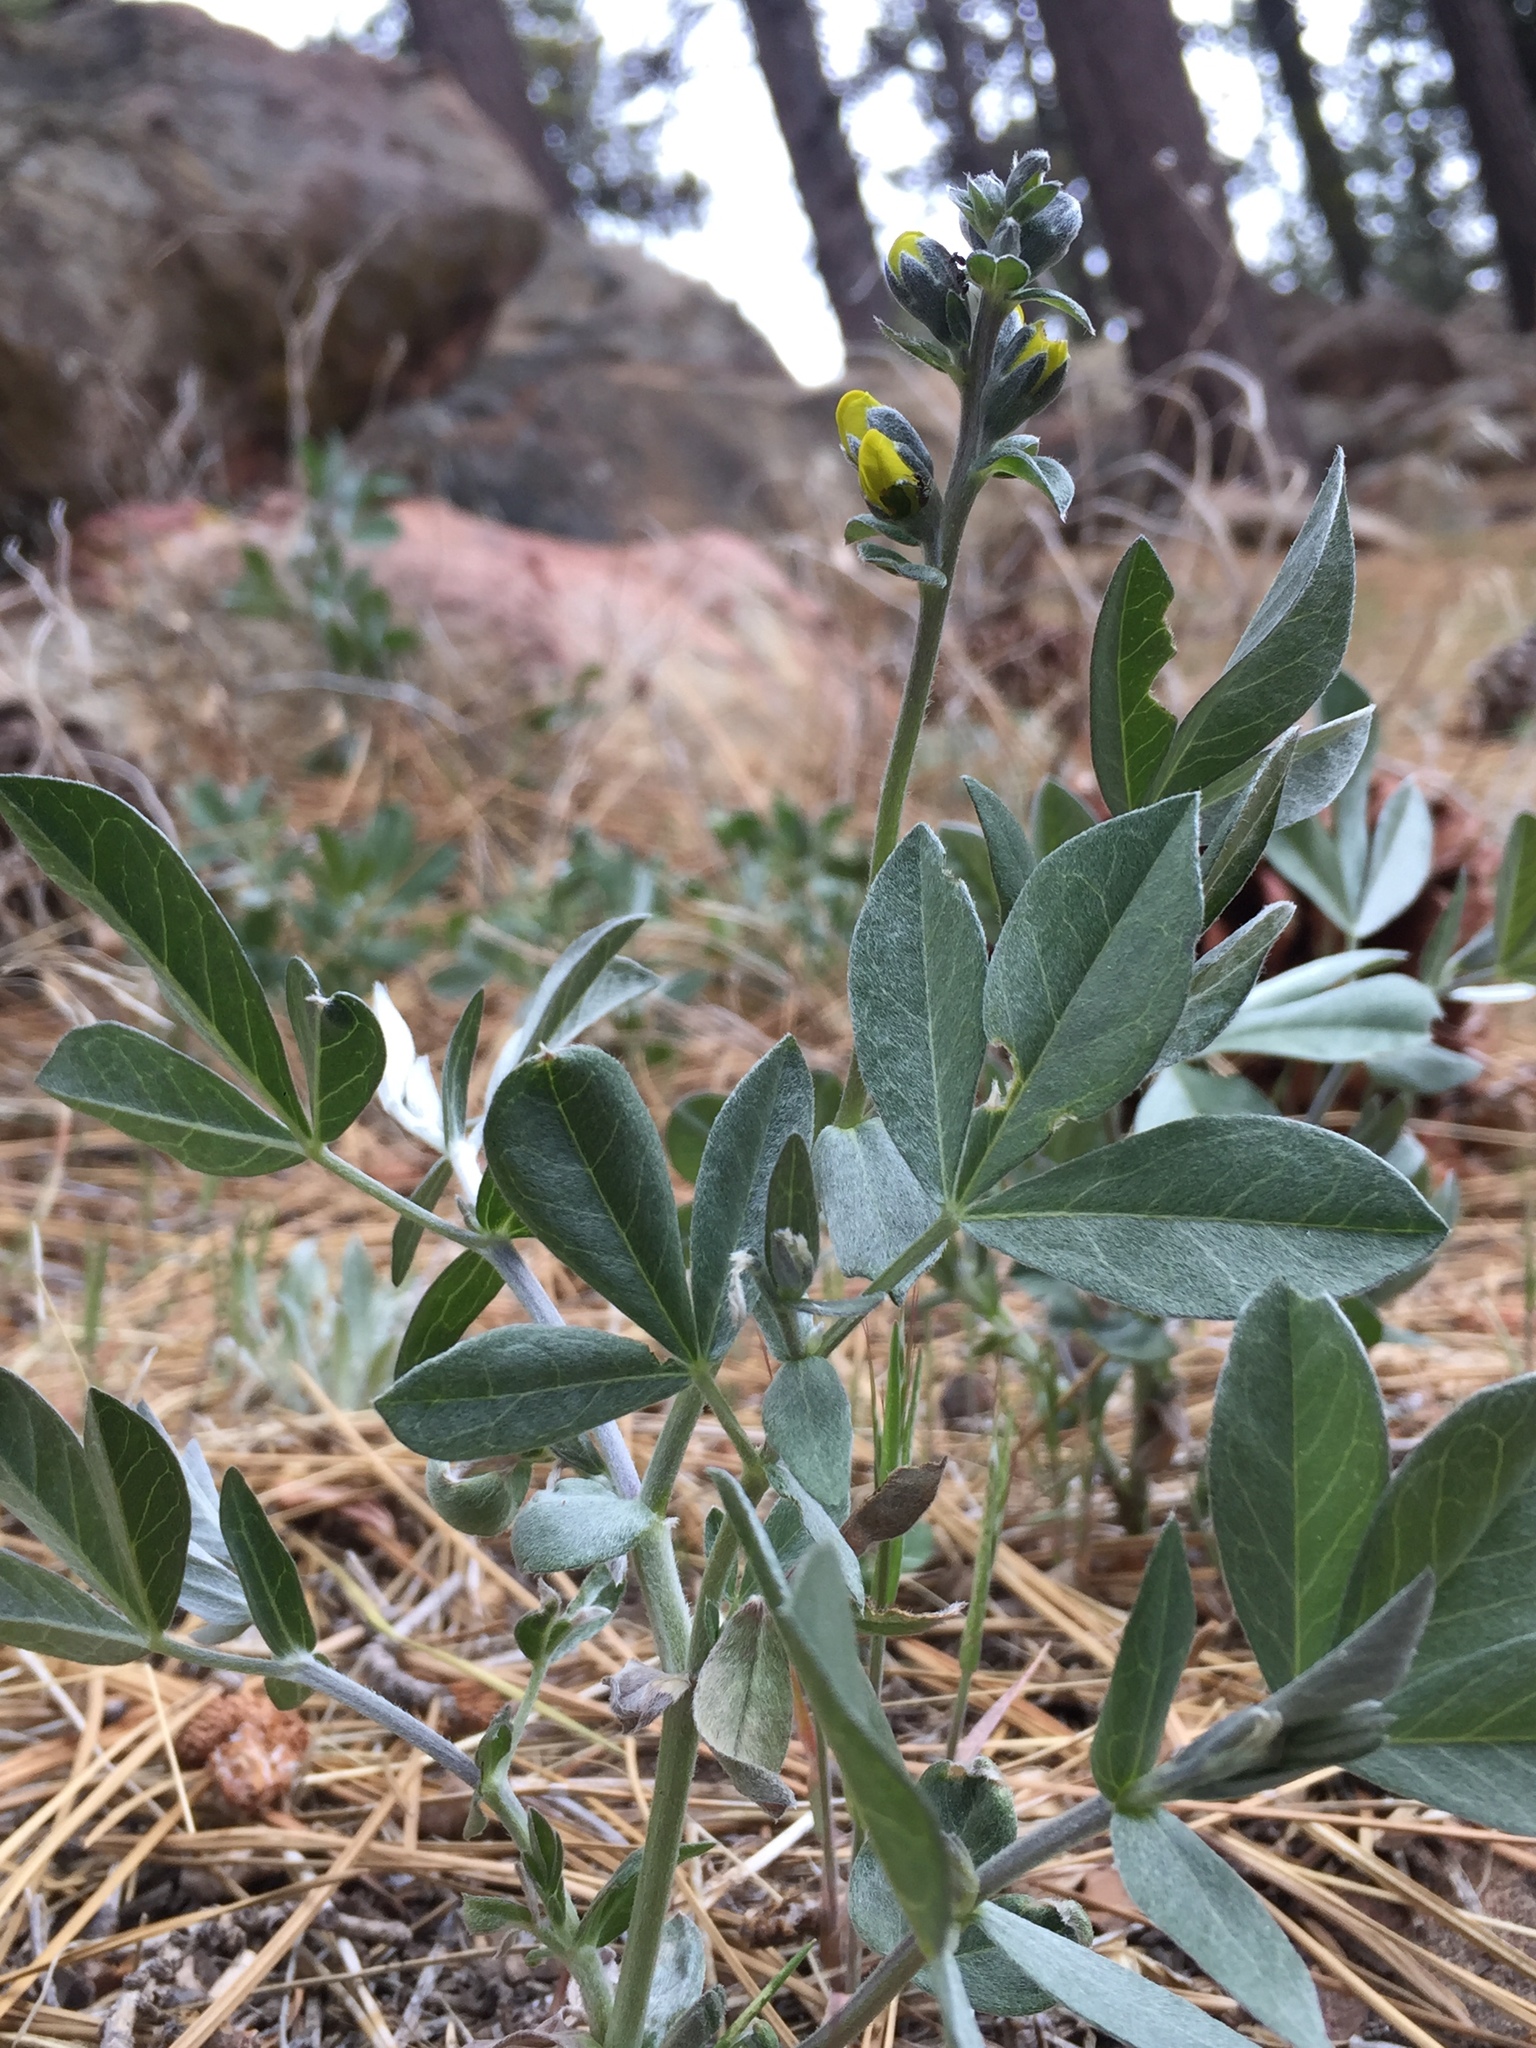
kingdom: Plantae
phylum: Tracheophyta
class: Magnoliopsida
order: Fabales
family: Fabaceae
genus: Thermopsis
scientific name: Thermopsis californica
